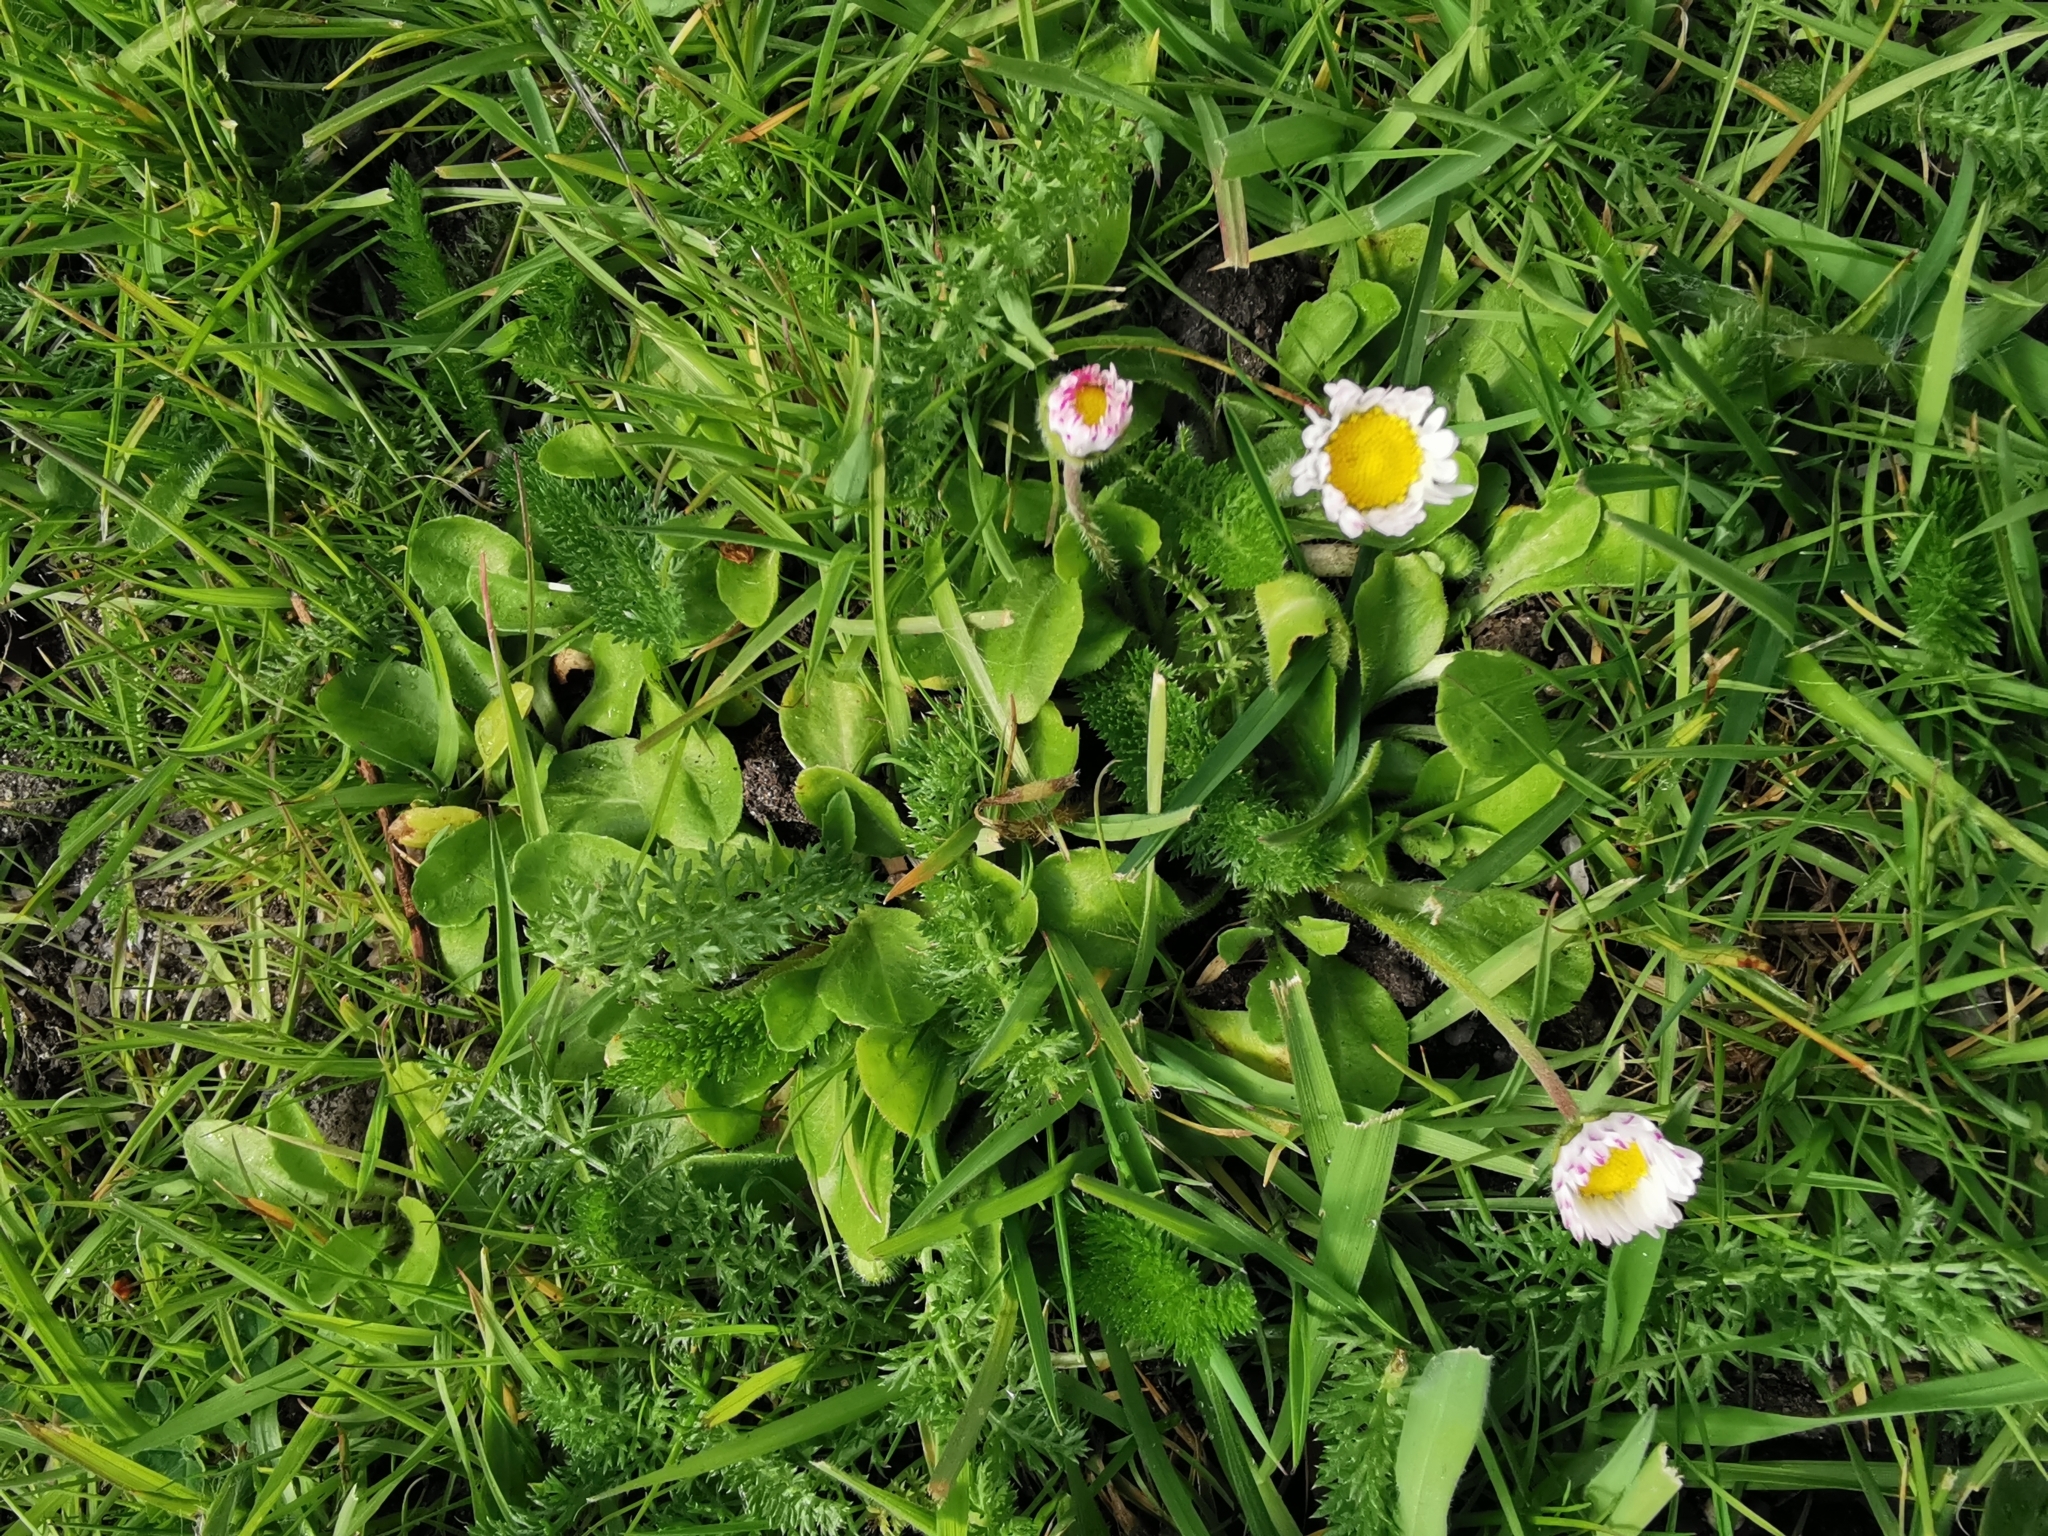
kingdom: Plantae
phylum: Tracheophyta
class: Magnoliopsida
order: Asterales
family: Asteraceae
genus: Bellis
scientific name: Bellis perennis
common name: Lawndaisy
